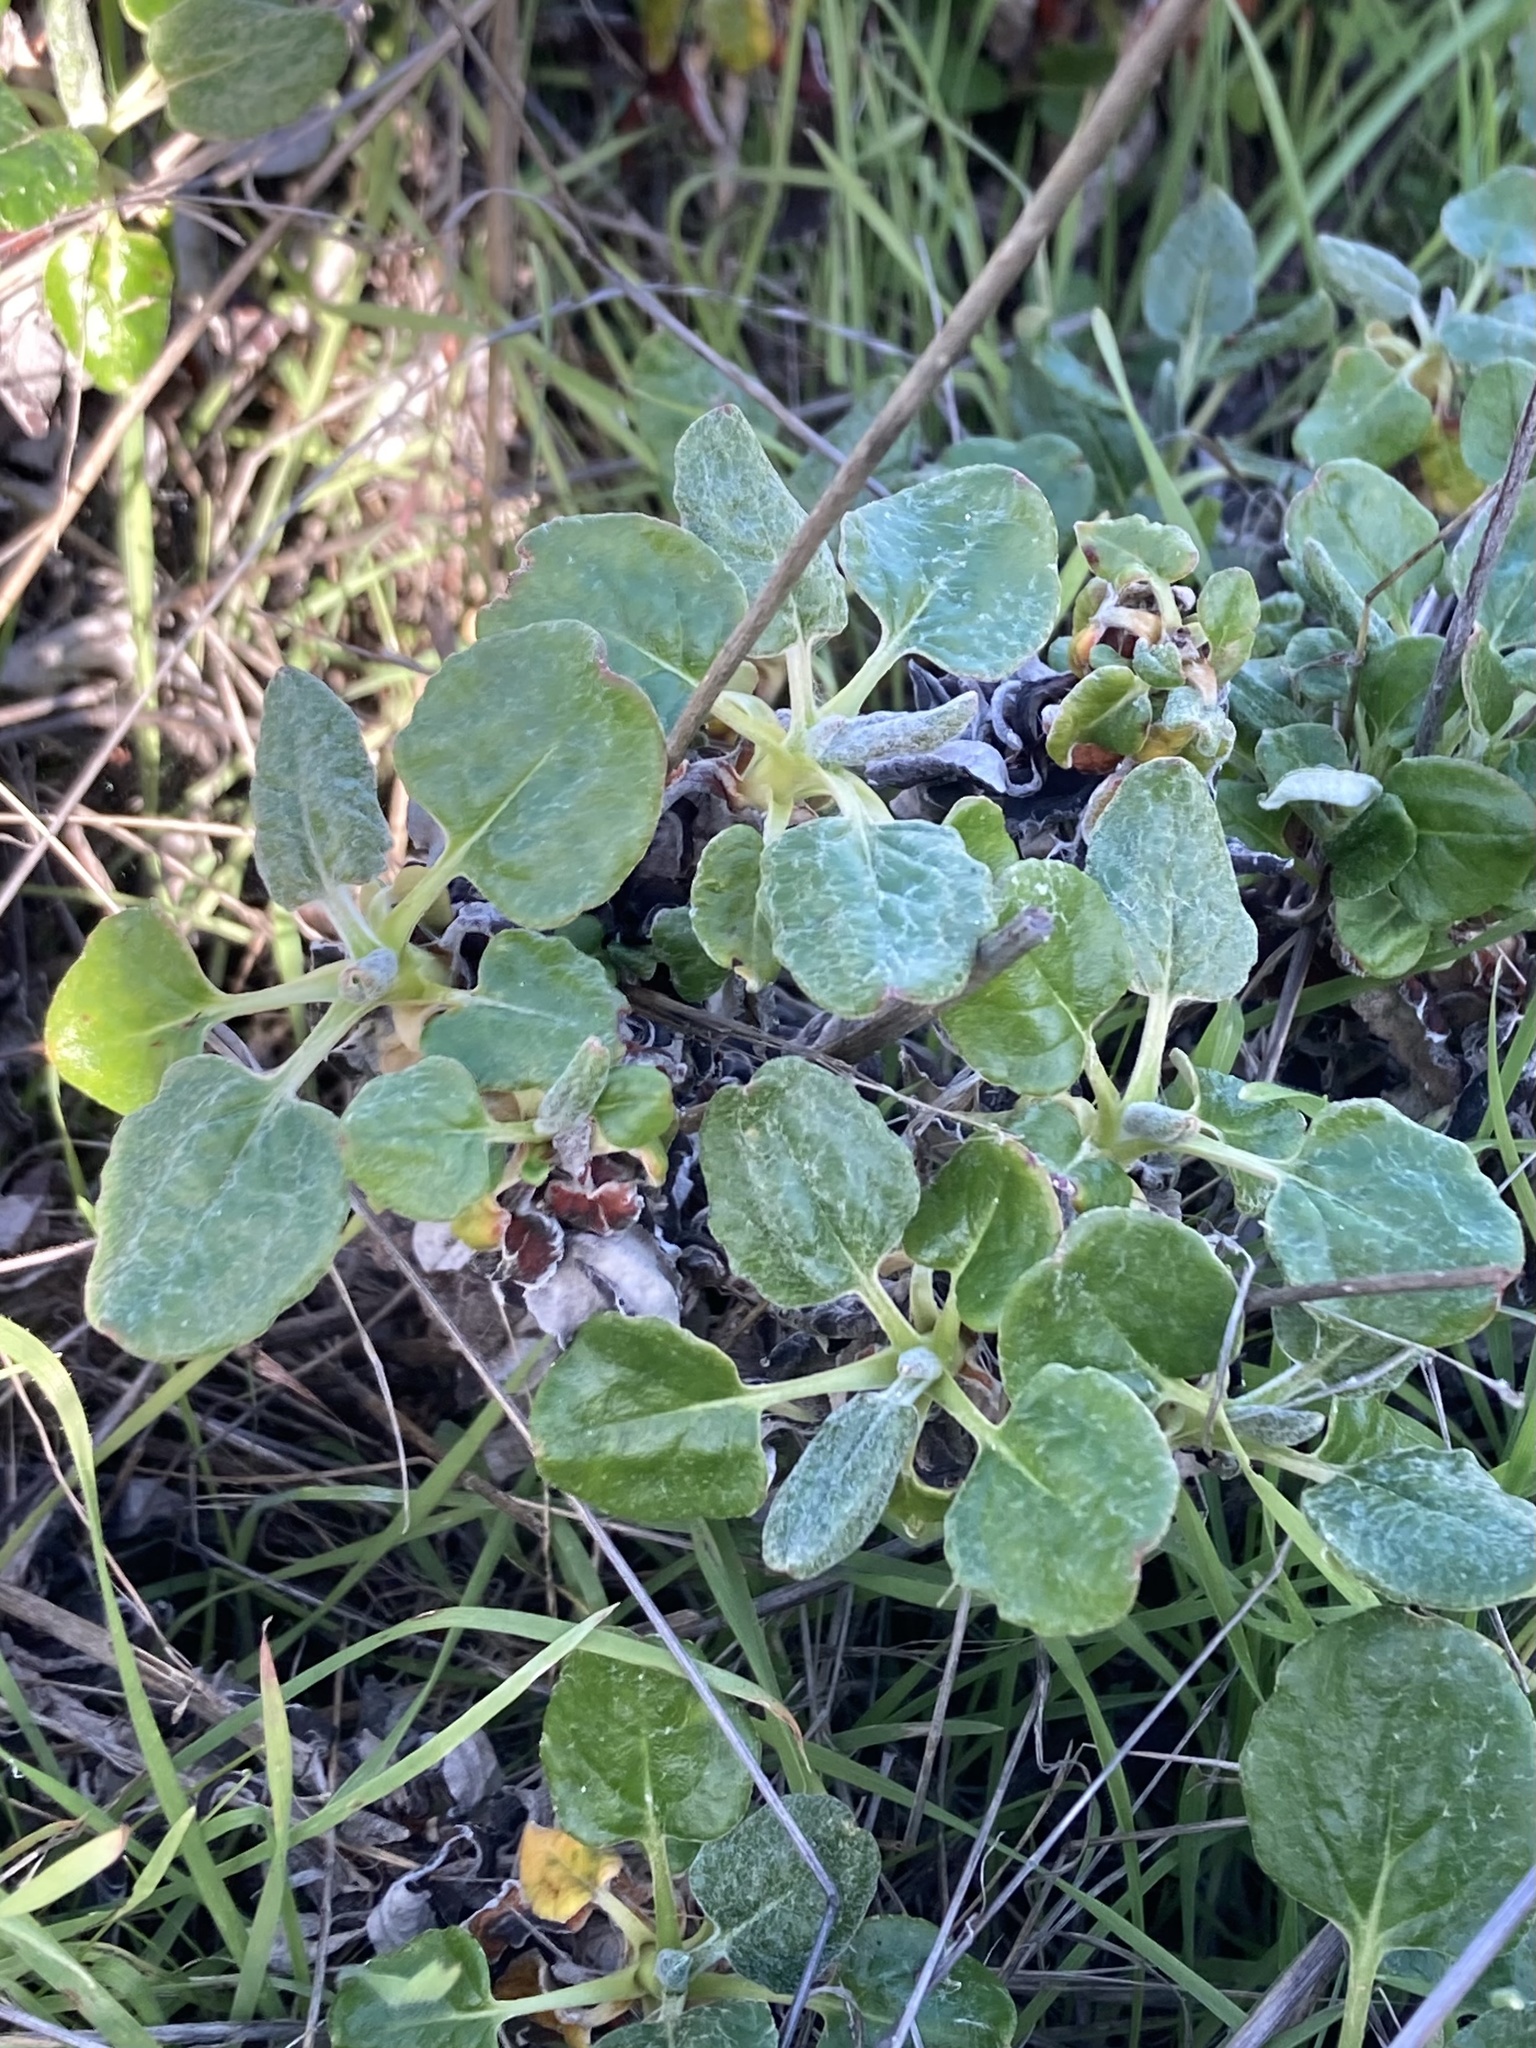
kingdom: Plantae
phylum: Tracheophyta
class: Magnoliopsida
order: Caryophyllales
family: Polygonaceae
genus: Eriogonum
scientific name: Eriogonum latifolium
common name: Seaside wild buckwheat
